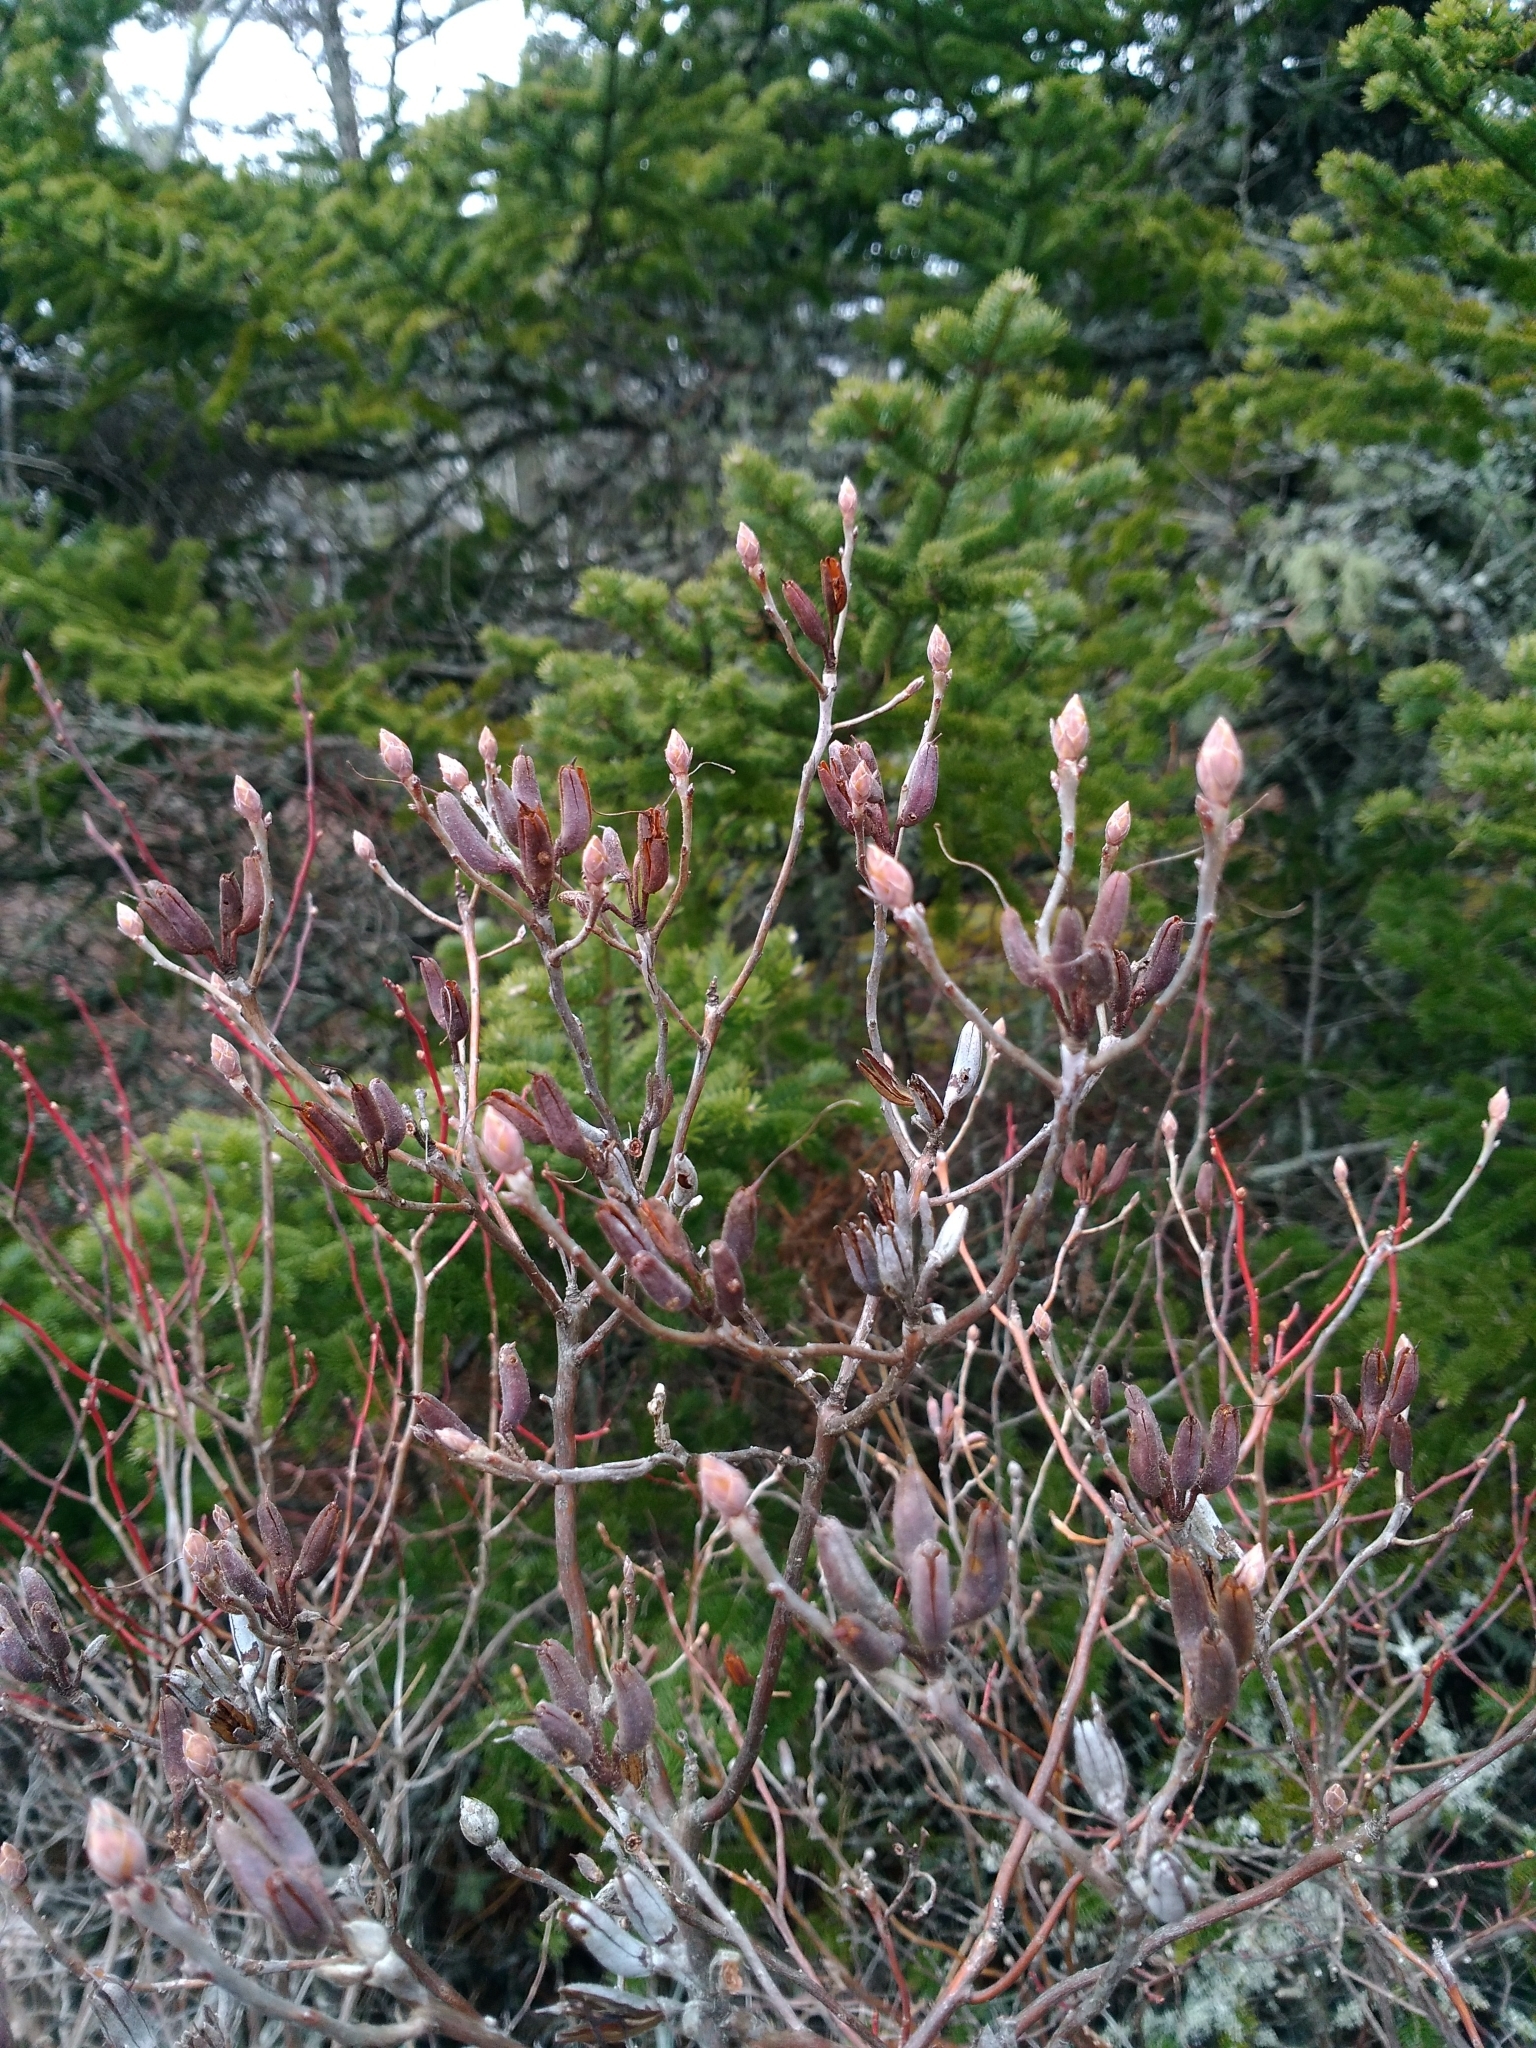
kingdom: Plantae
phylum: Tracheophyta
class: Magnoliopsida
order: Ericales
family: Ericaceae
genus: Rhododendron
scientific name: Rhododendron canadense
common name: Rhodora
